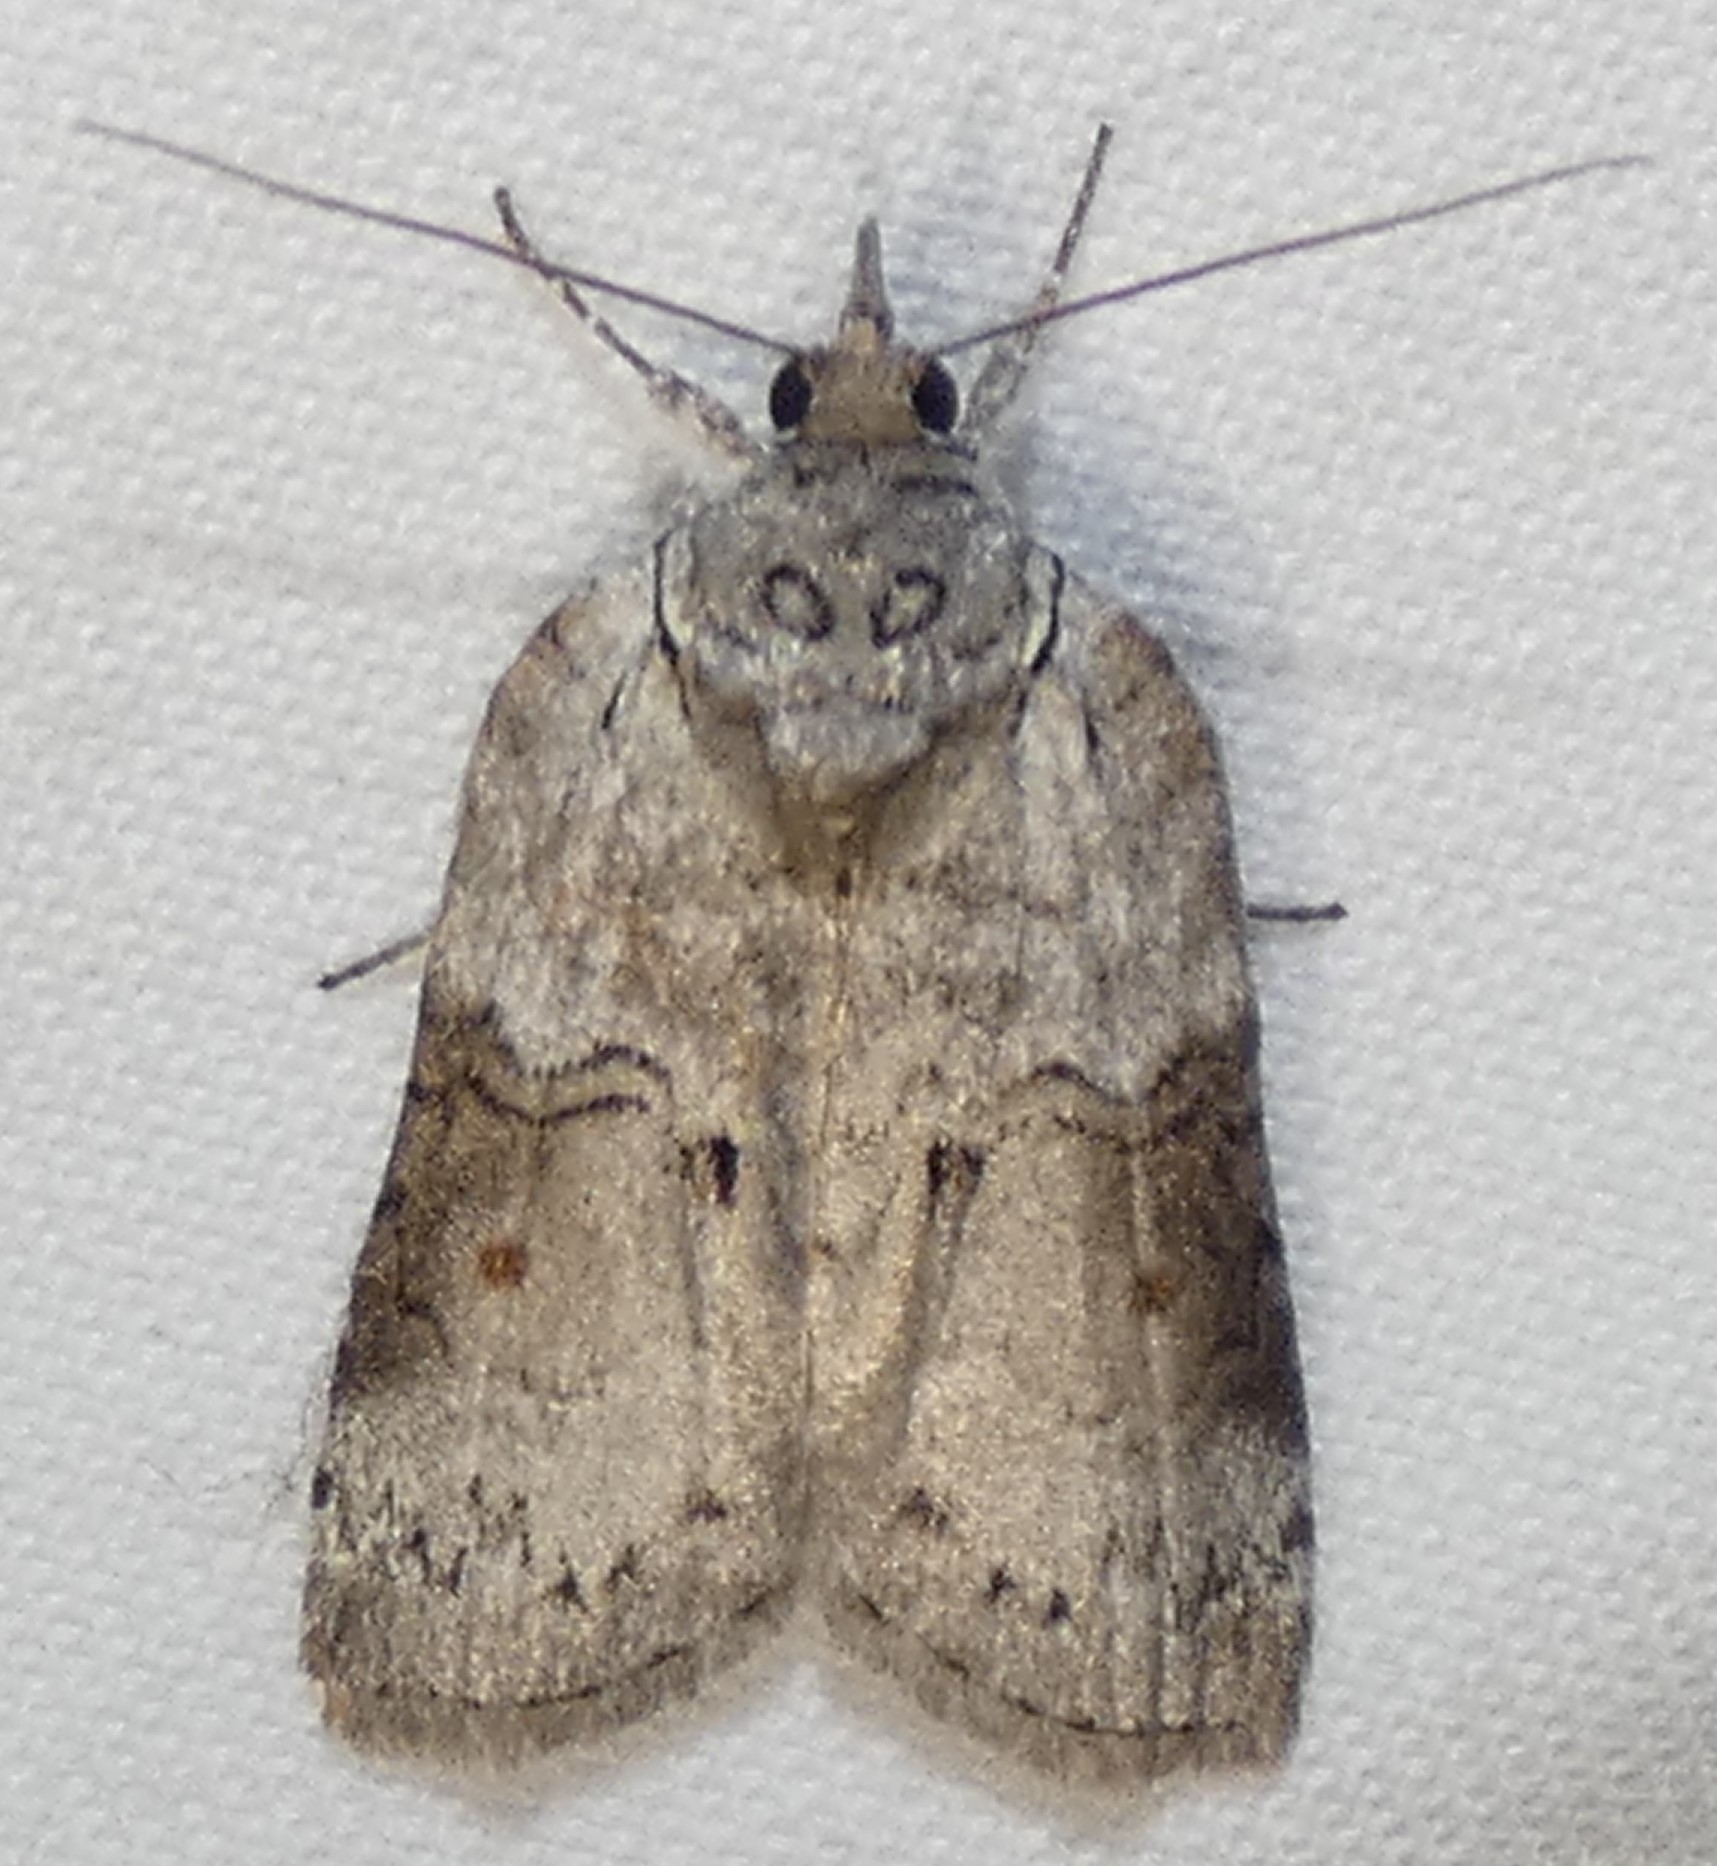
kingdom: Animalia
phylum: Arthropoda
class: Insecta
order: Lepidoptera
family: Nolidae
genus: Nycteola
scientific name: Nycteola metaspilella
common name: Forgotten frigid owlet
